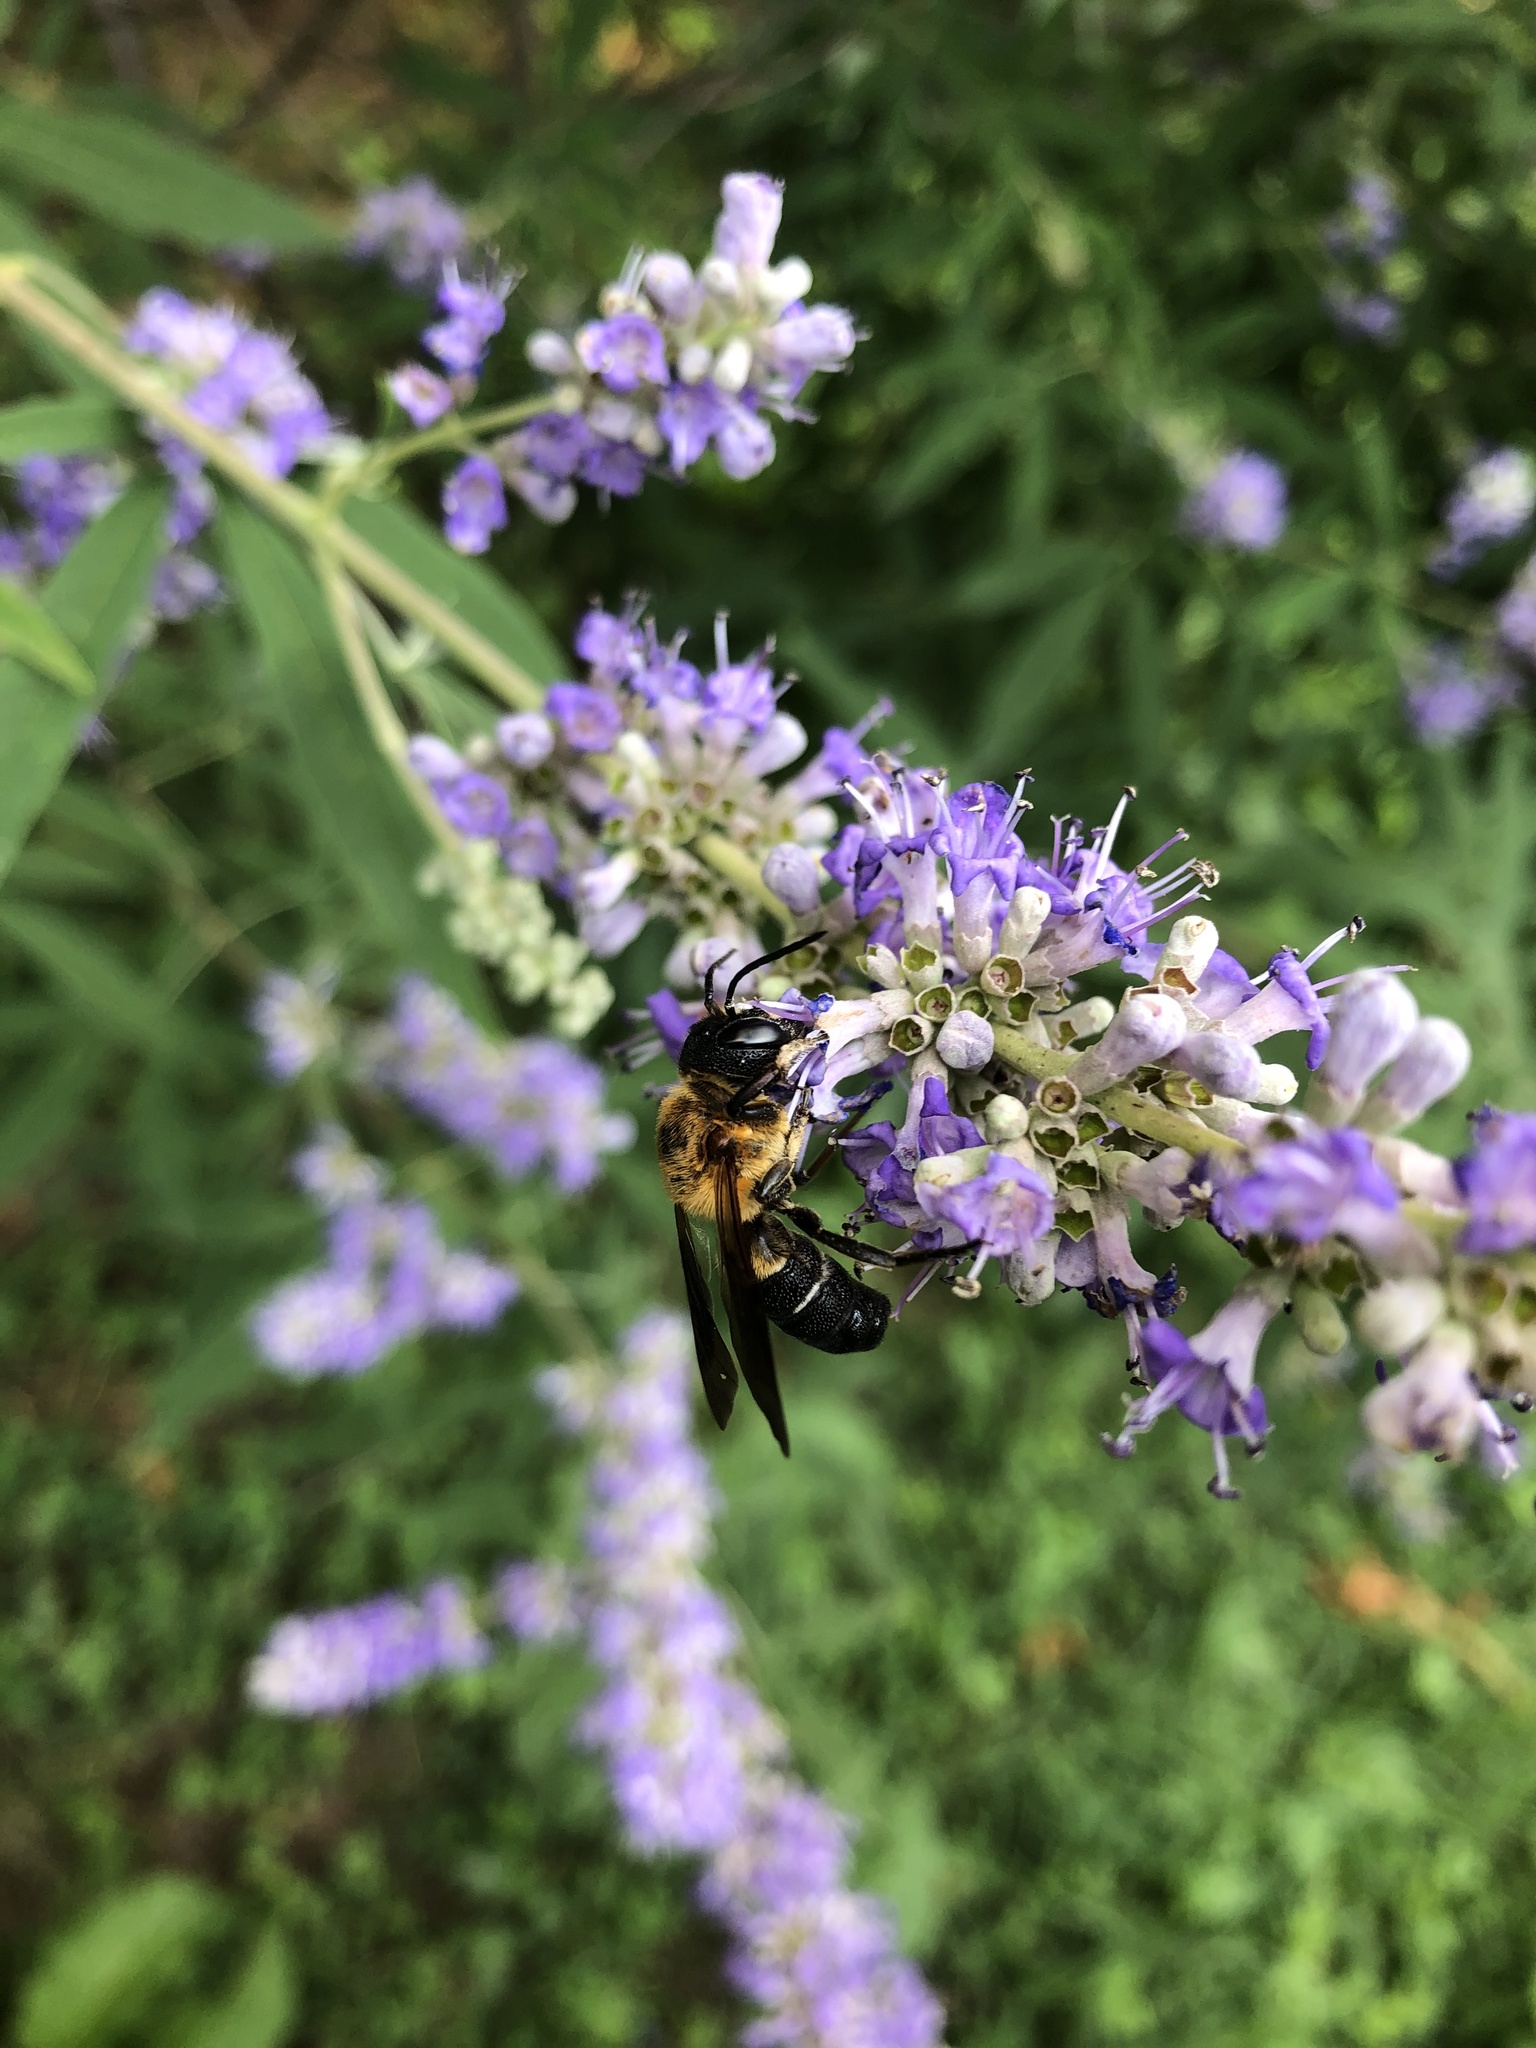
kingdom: Animalia
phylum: Arthropoda
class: Insecta
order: Hymenoptera
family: Megachilidae
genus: Megachile
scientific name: Megachile sculpturalis
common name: Sculptured resin bee
